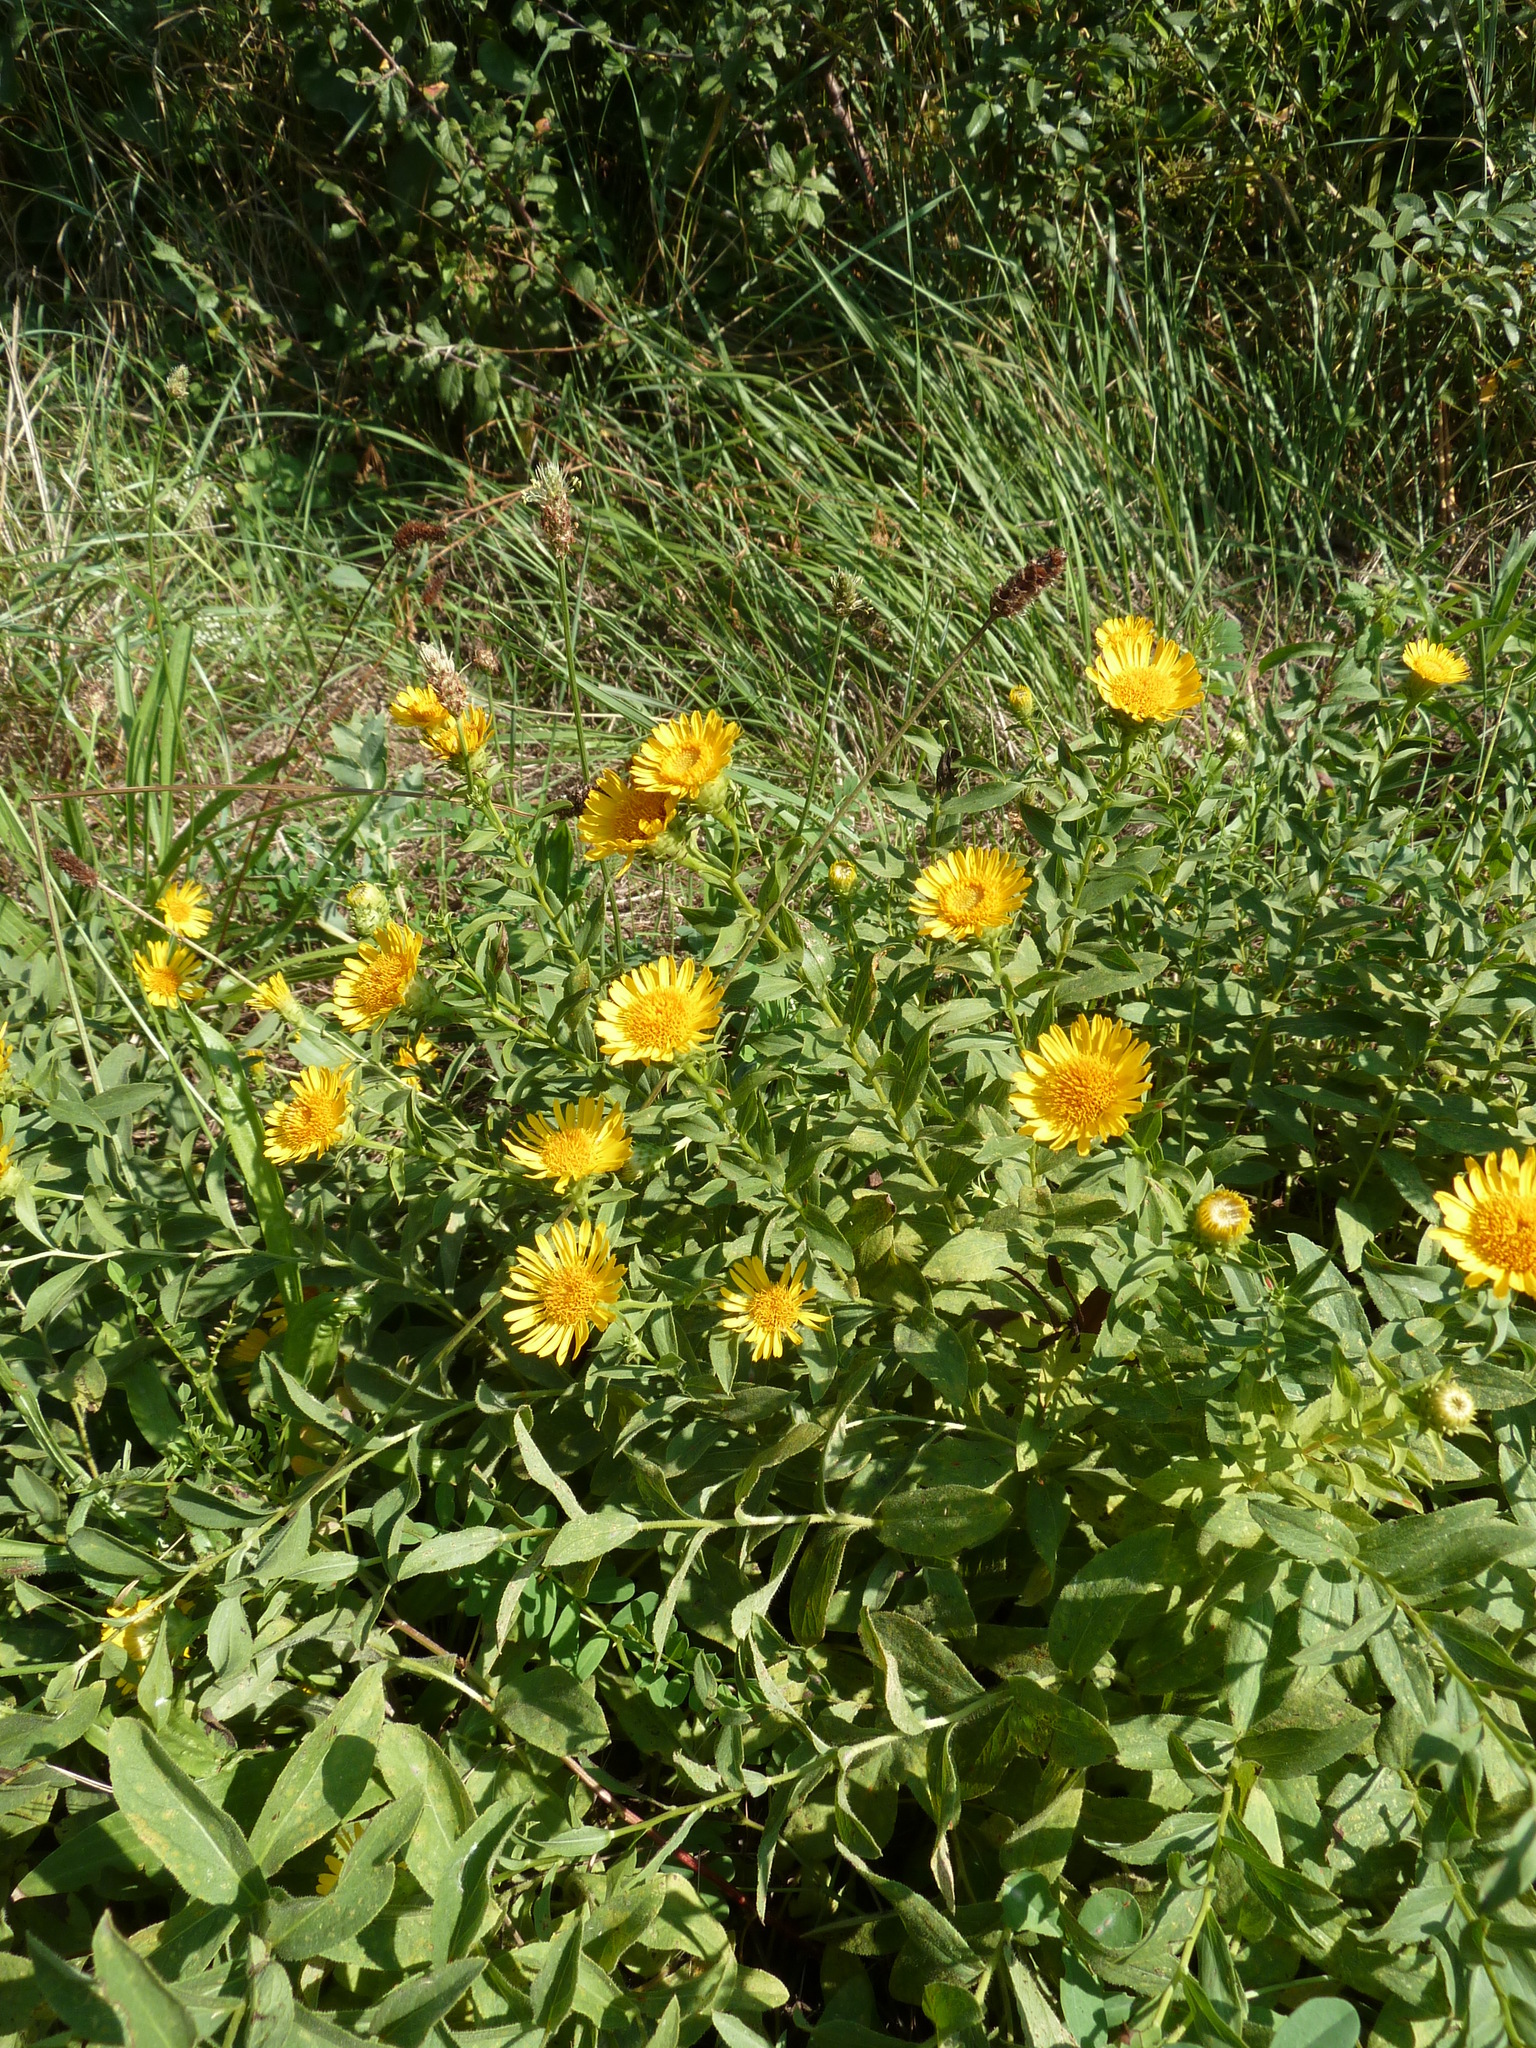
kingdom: Plantae
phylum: Tracheophyta
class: Magnoliopsida
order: Asterales
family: Asteraceae
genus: Pentanema
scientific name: Pentanema spiraeifolium
